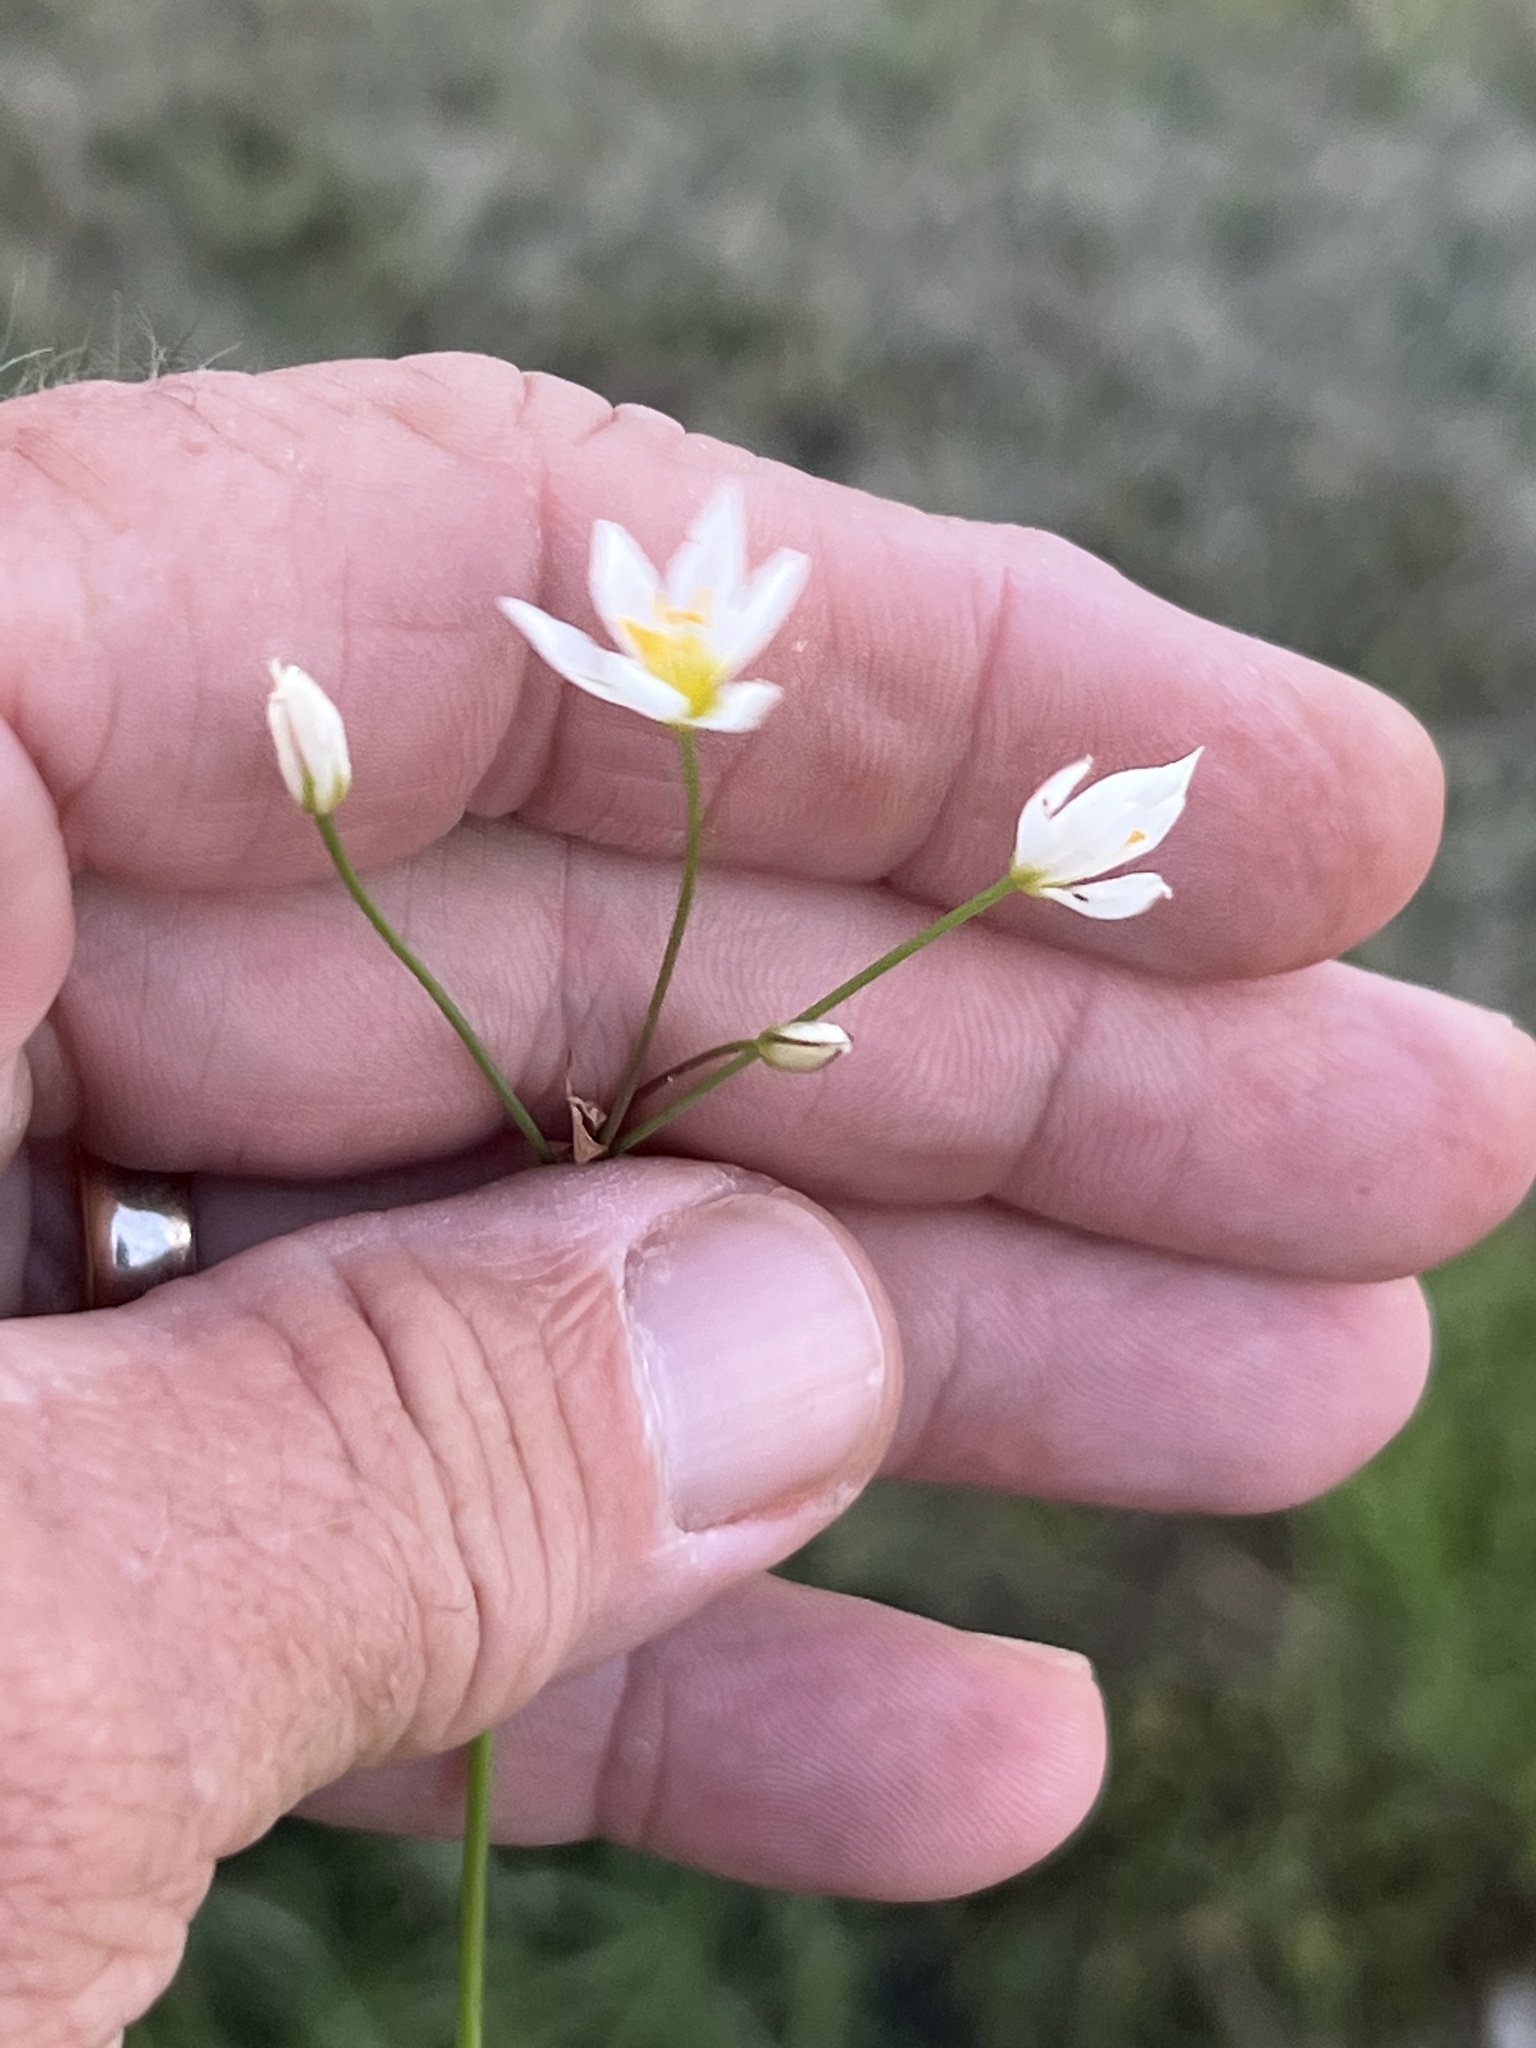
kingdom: Plantae
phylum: Tracheophyta
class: Liliopsida
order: Asparagales
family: Amaryllidaceae
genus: Nothoscordum
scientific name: Nothoscordum bivalve
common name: Crow-poison
